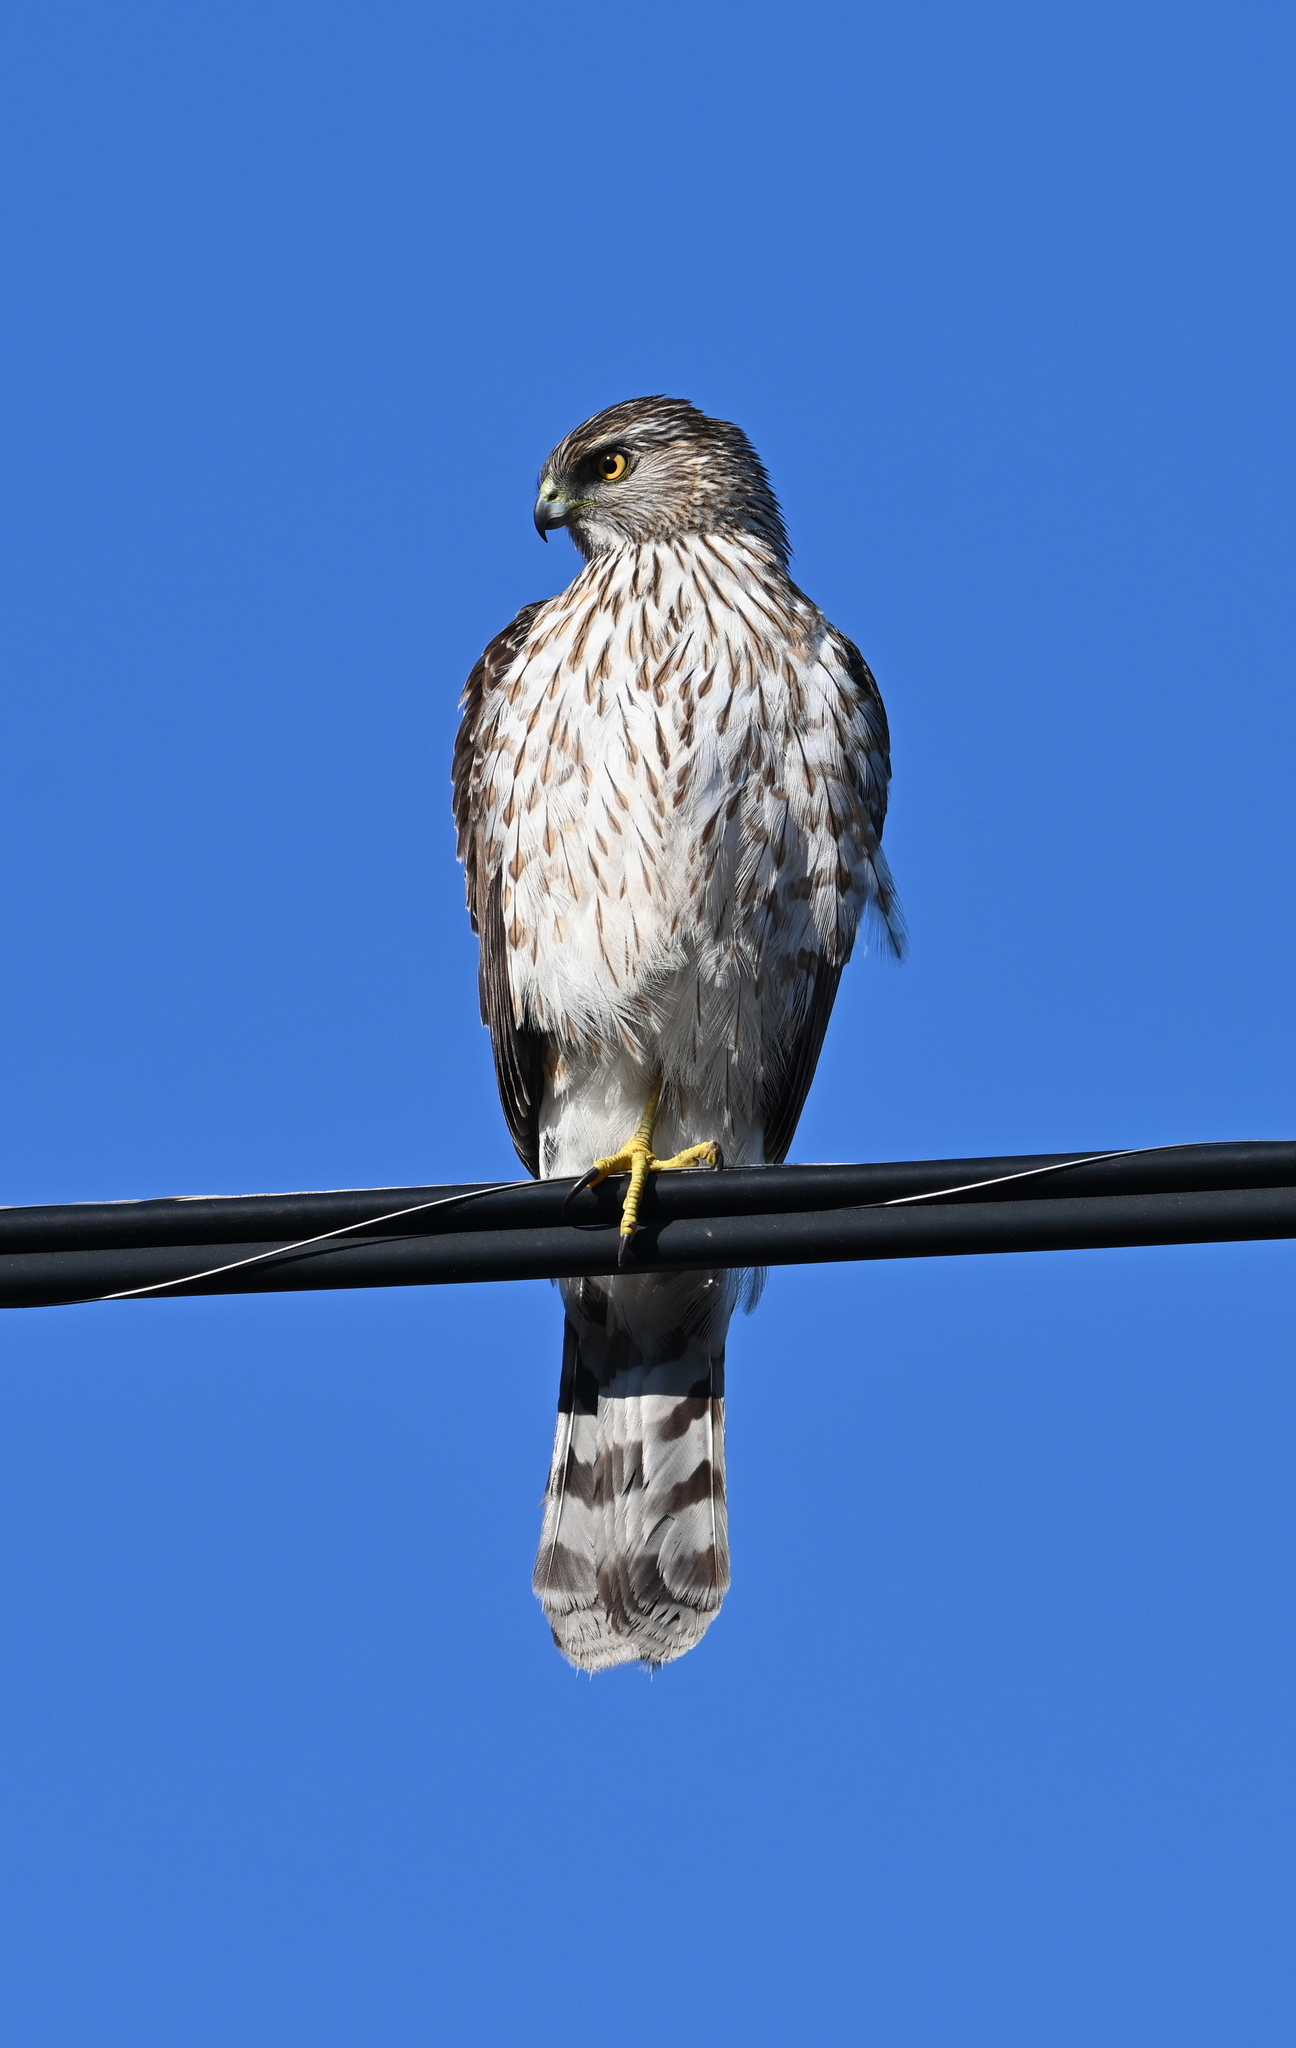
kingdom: Animalia
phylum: Chordata
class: Aves
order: Accipitriformes
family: Accipitridae
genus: Accipiter
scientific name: Accipiter cooperii
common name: Cooper's hawk
